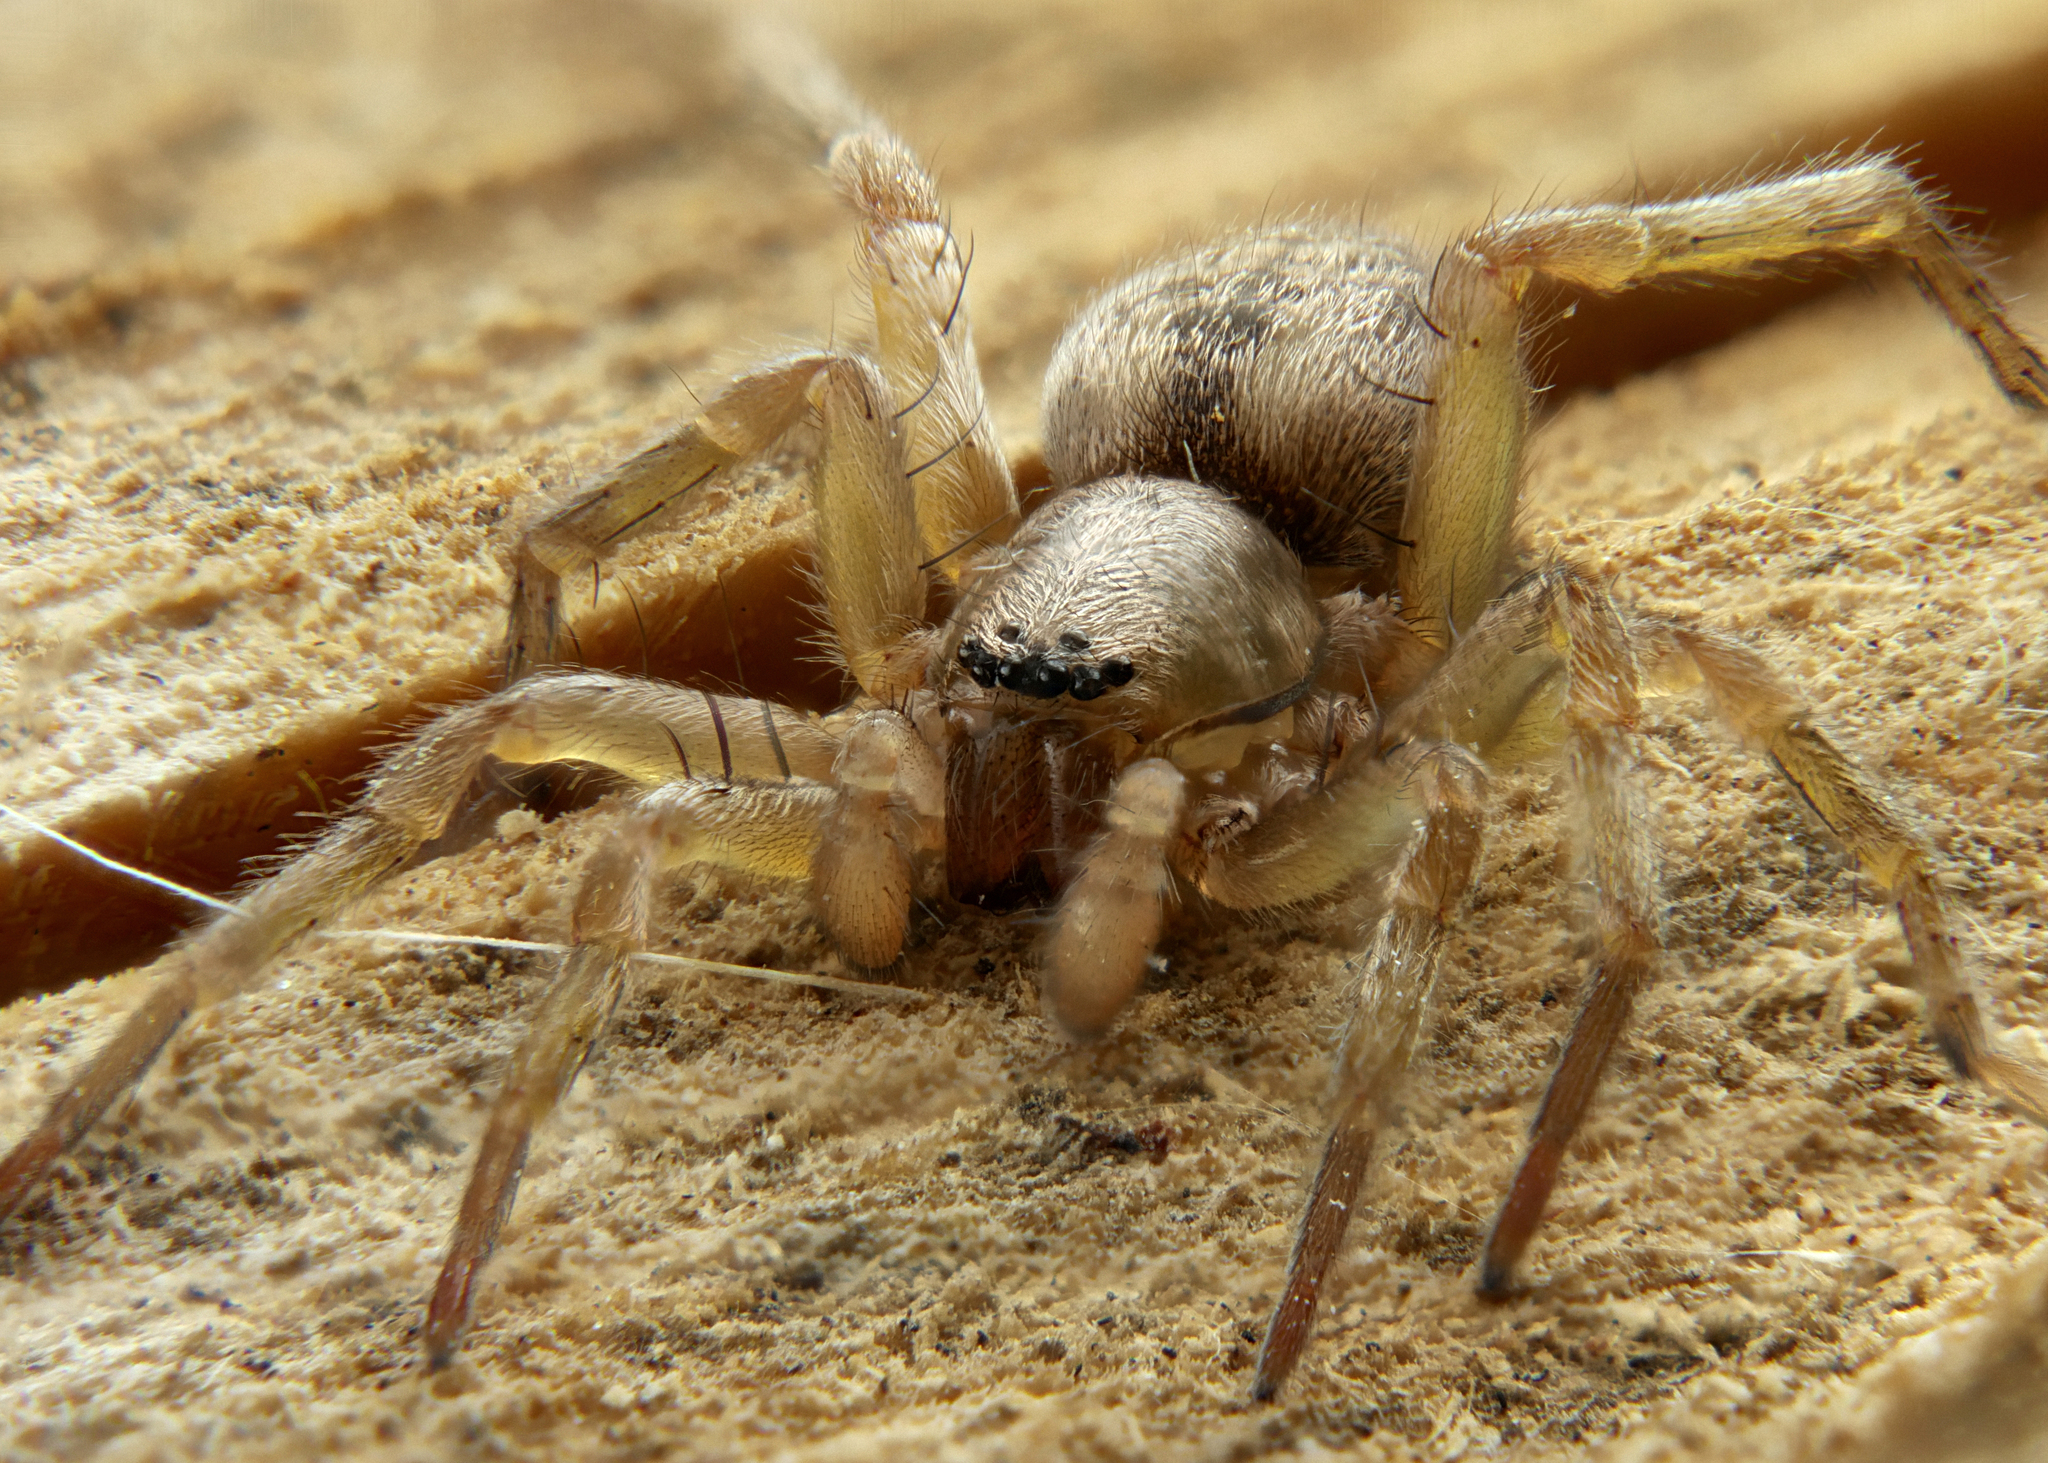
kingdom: Animalia
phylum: Arthropoda
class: Arachnida
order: Araneae
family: Clubionidae
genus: Clubiona
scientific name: Clubiona corticalis
